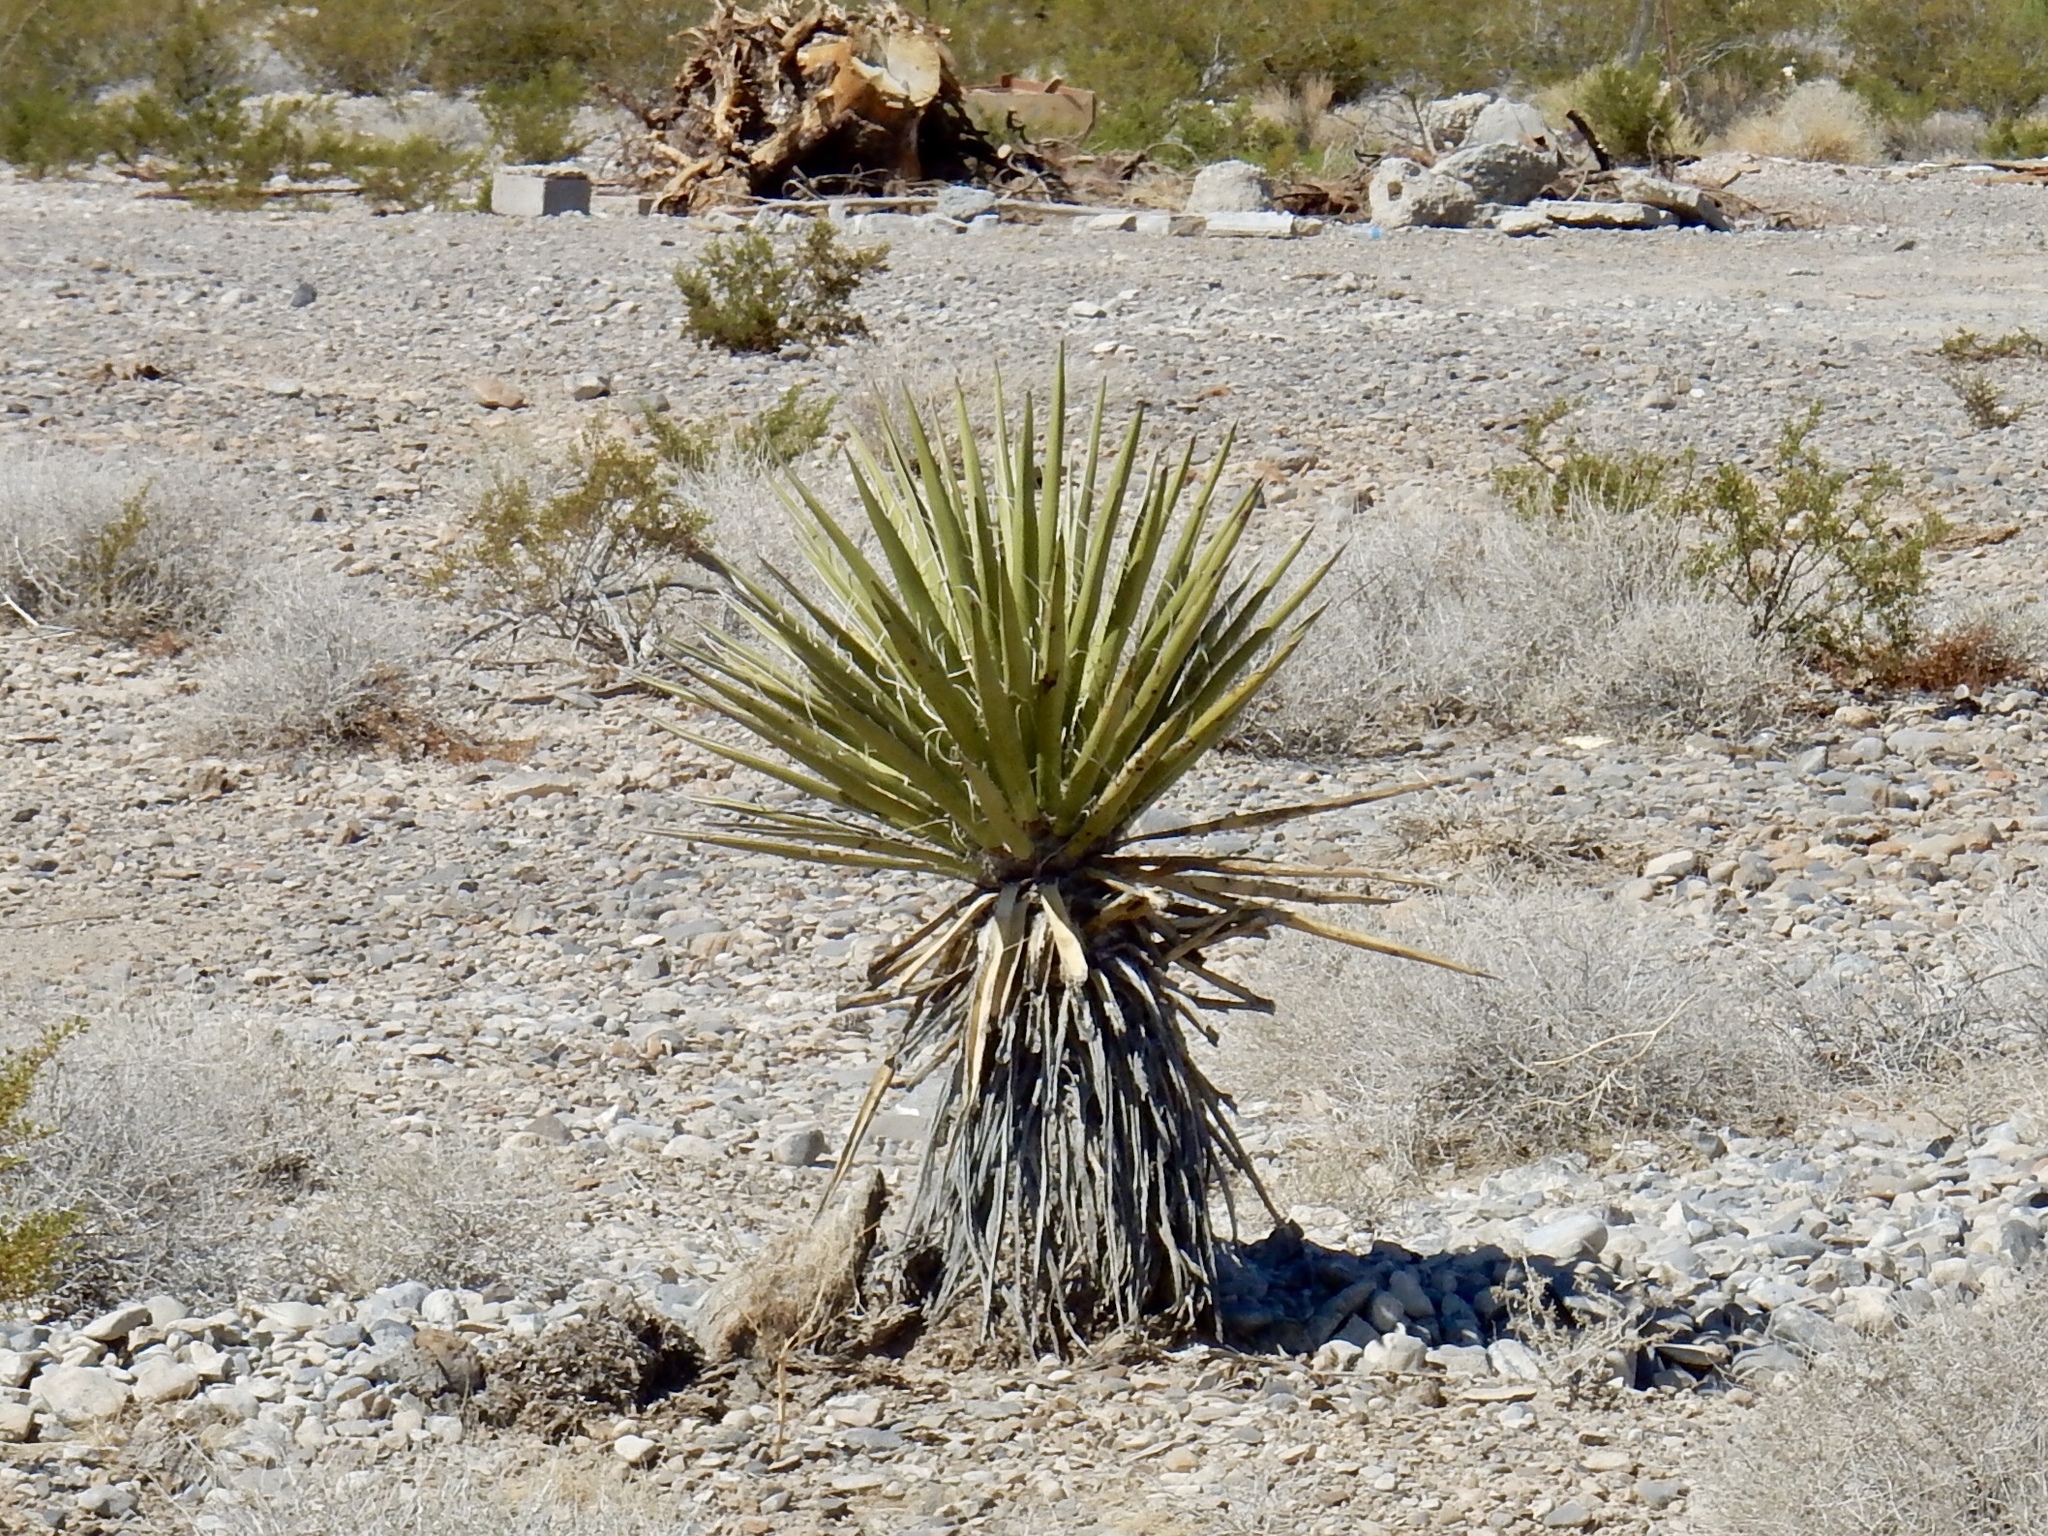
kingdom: Plantae
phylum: Tracheophyta
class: Liliopsida
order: Asparagales
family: Asparagaceae
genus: Yucca
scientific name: Yucca schidigera
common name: Mojave yucca
